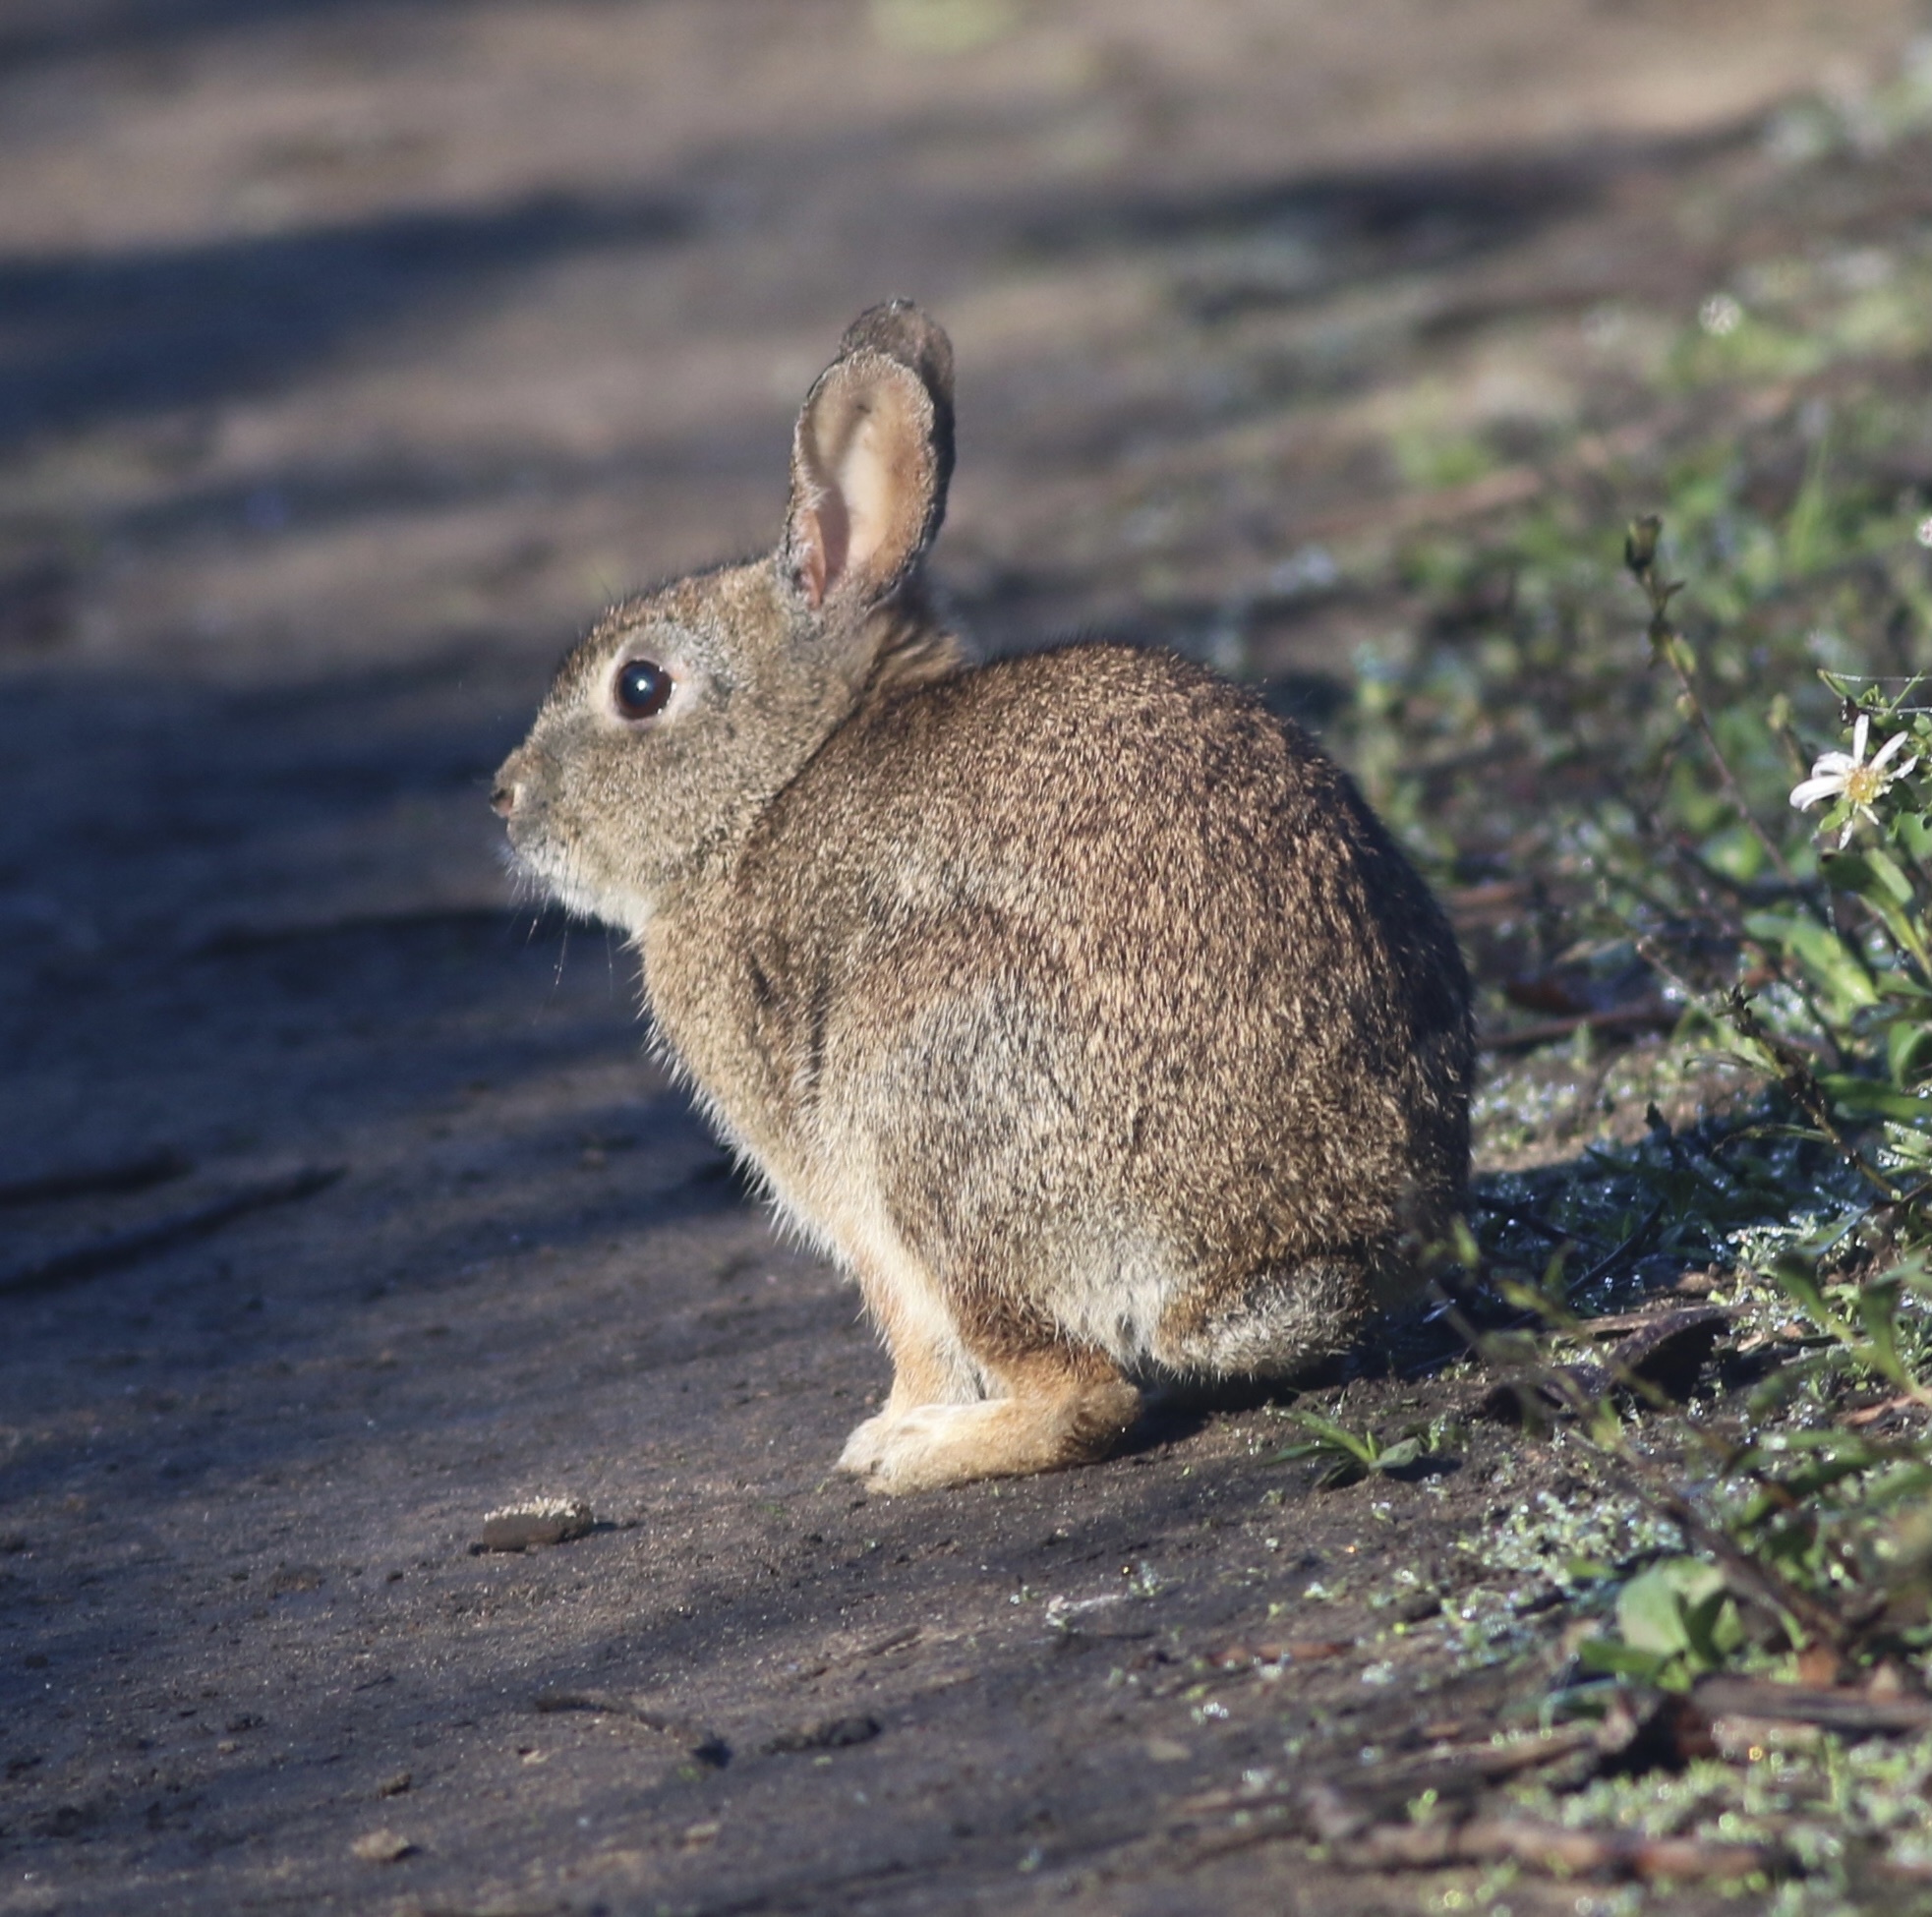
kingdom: Animalia
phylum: Chordata
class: Mammalia
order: Lagomorpha
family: Leporidae
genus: Sylvilagus
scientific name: Sylvilagus bachmani
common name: Brush rabbit
